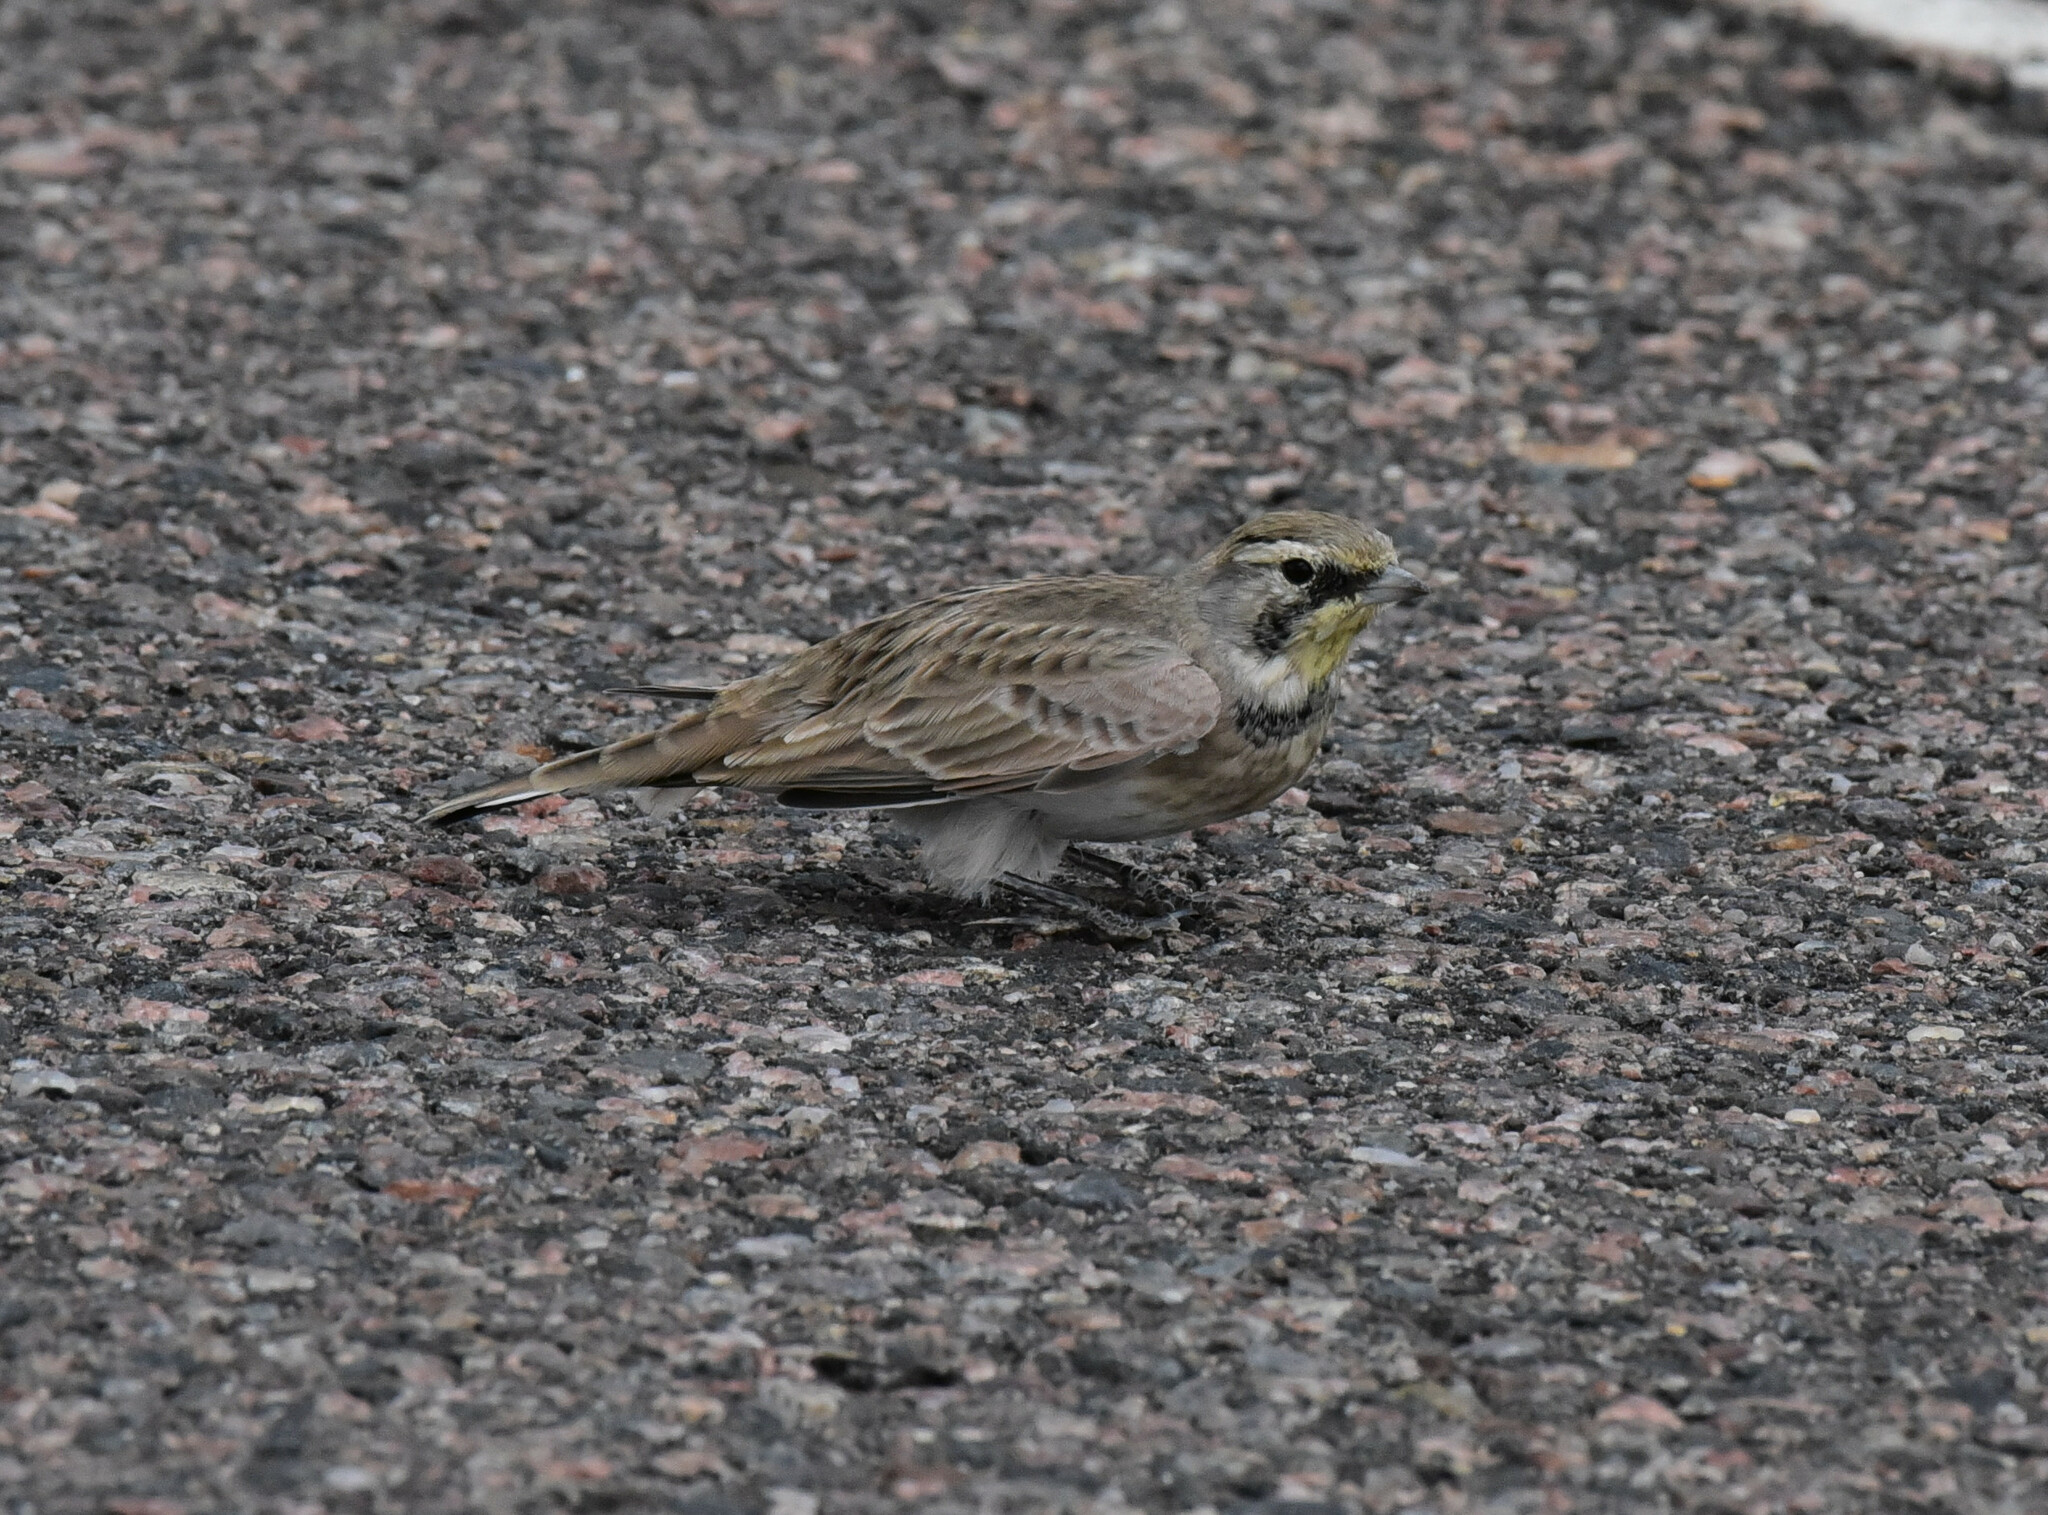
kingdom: Animalia
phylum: Chordata
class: Aves
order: Passeriformes
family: Alaudidae
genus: Eremophila
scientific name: Eremophila alpestris
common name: Horned lark
